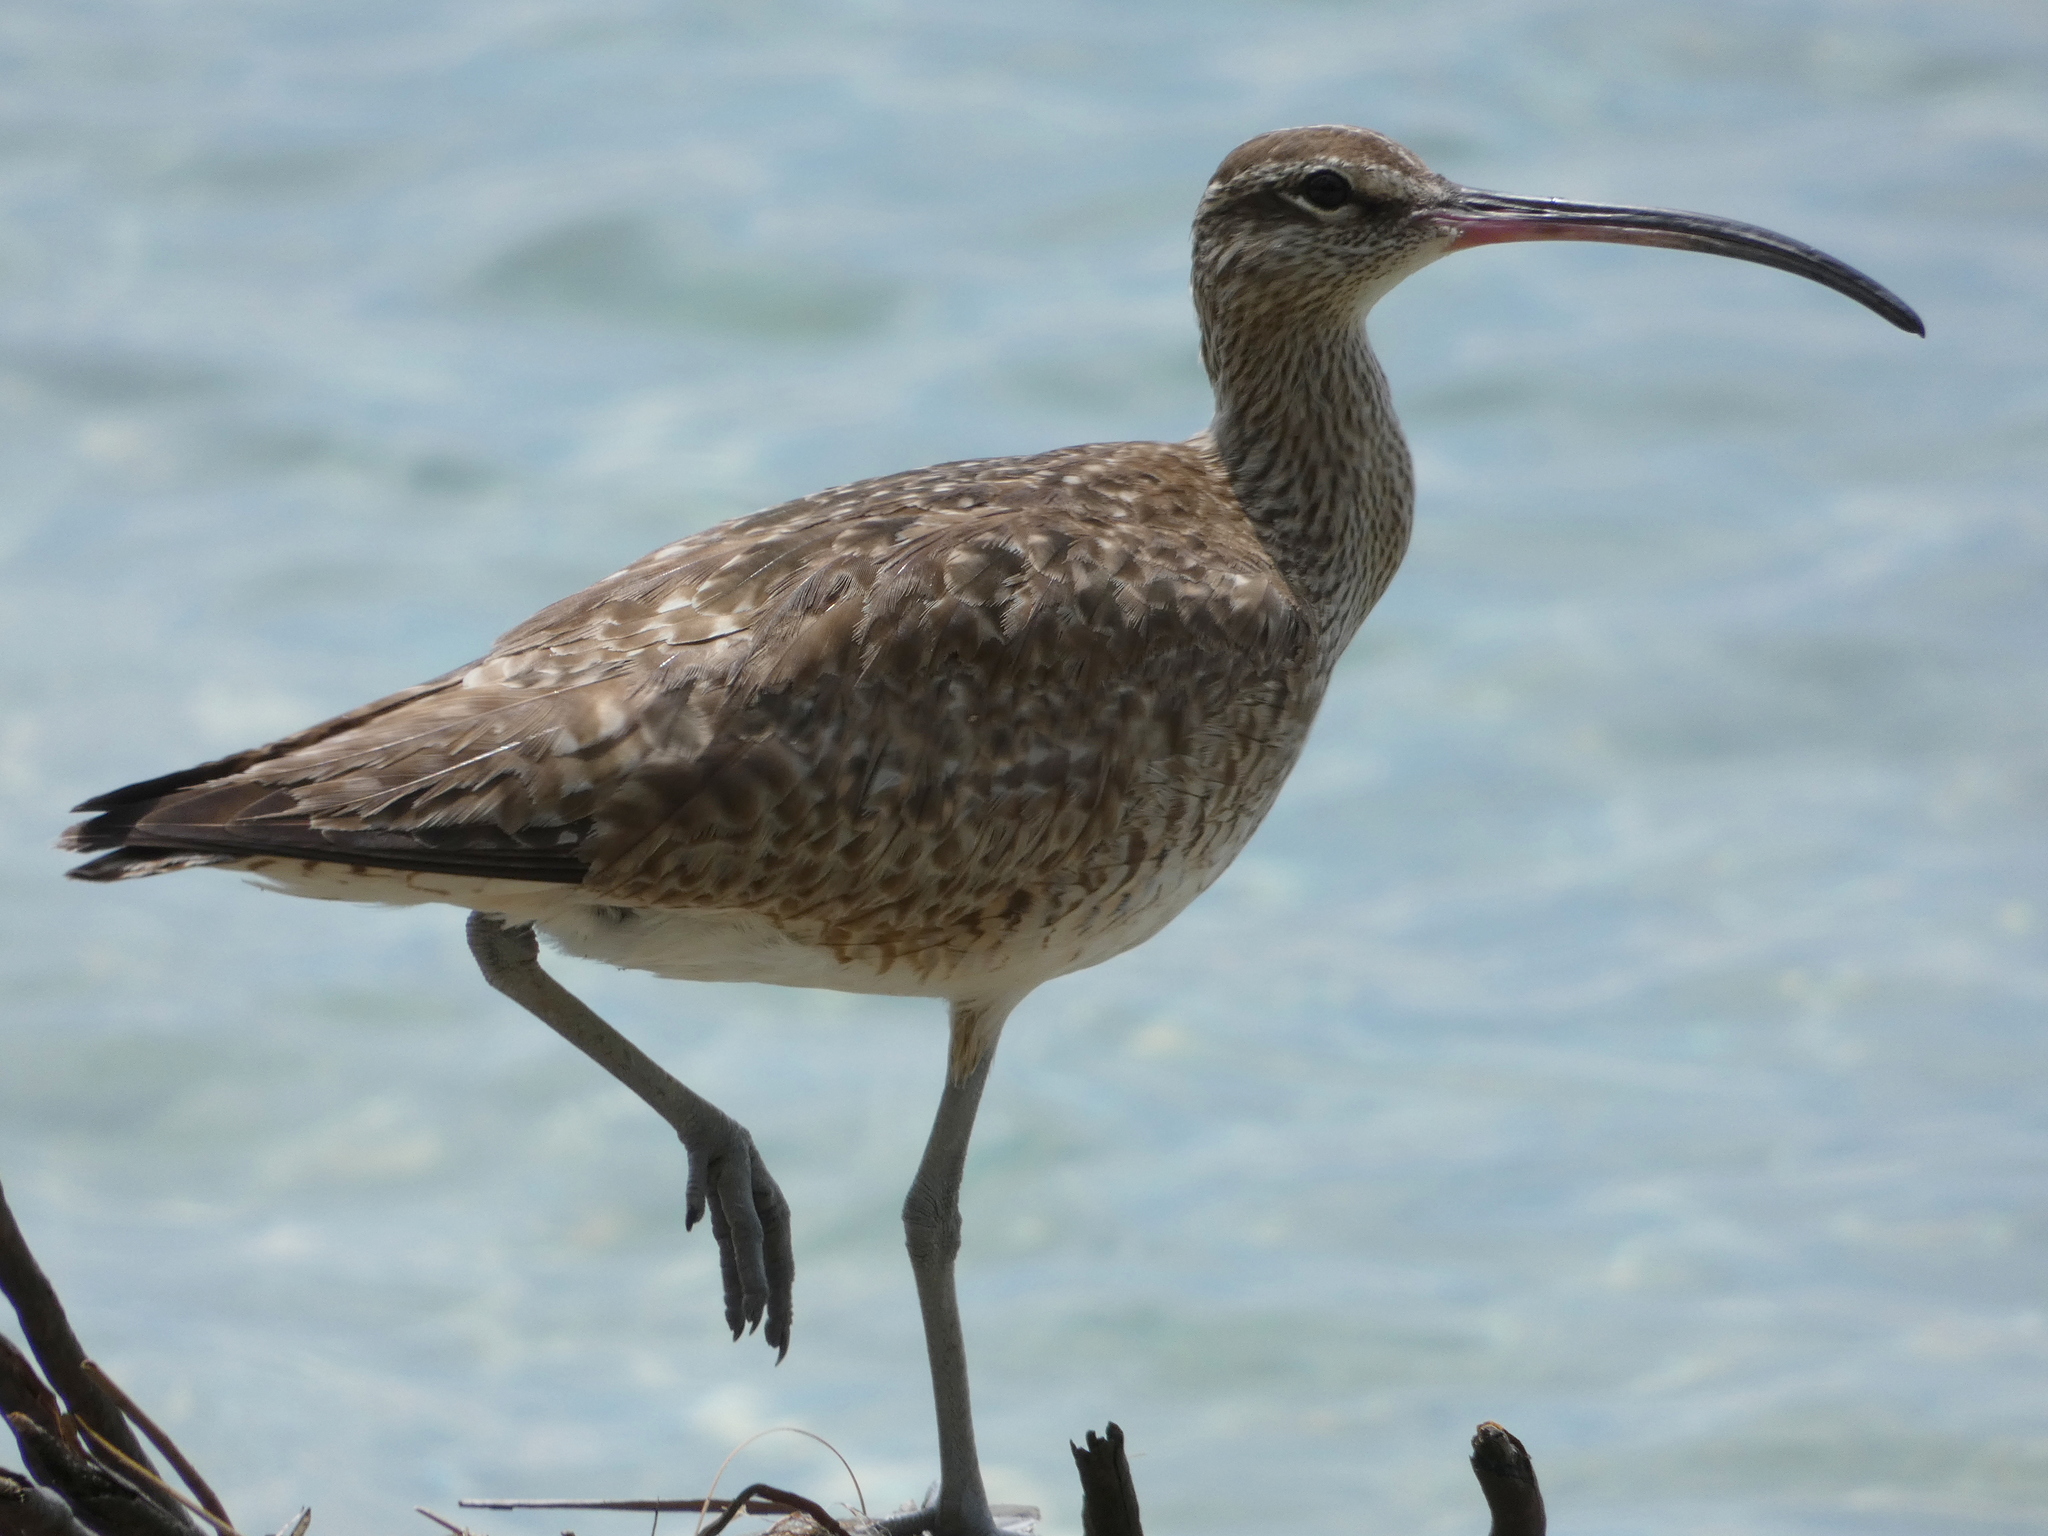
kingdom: Animalia
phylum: Chordata
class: Aves
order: Charadriiformes
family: Scolopacidae
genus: Numenius
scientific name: Numenius phaeopus
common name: Whimbrel
